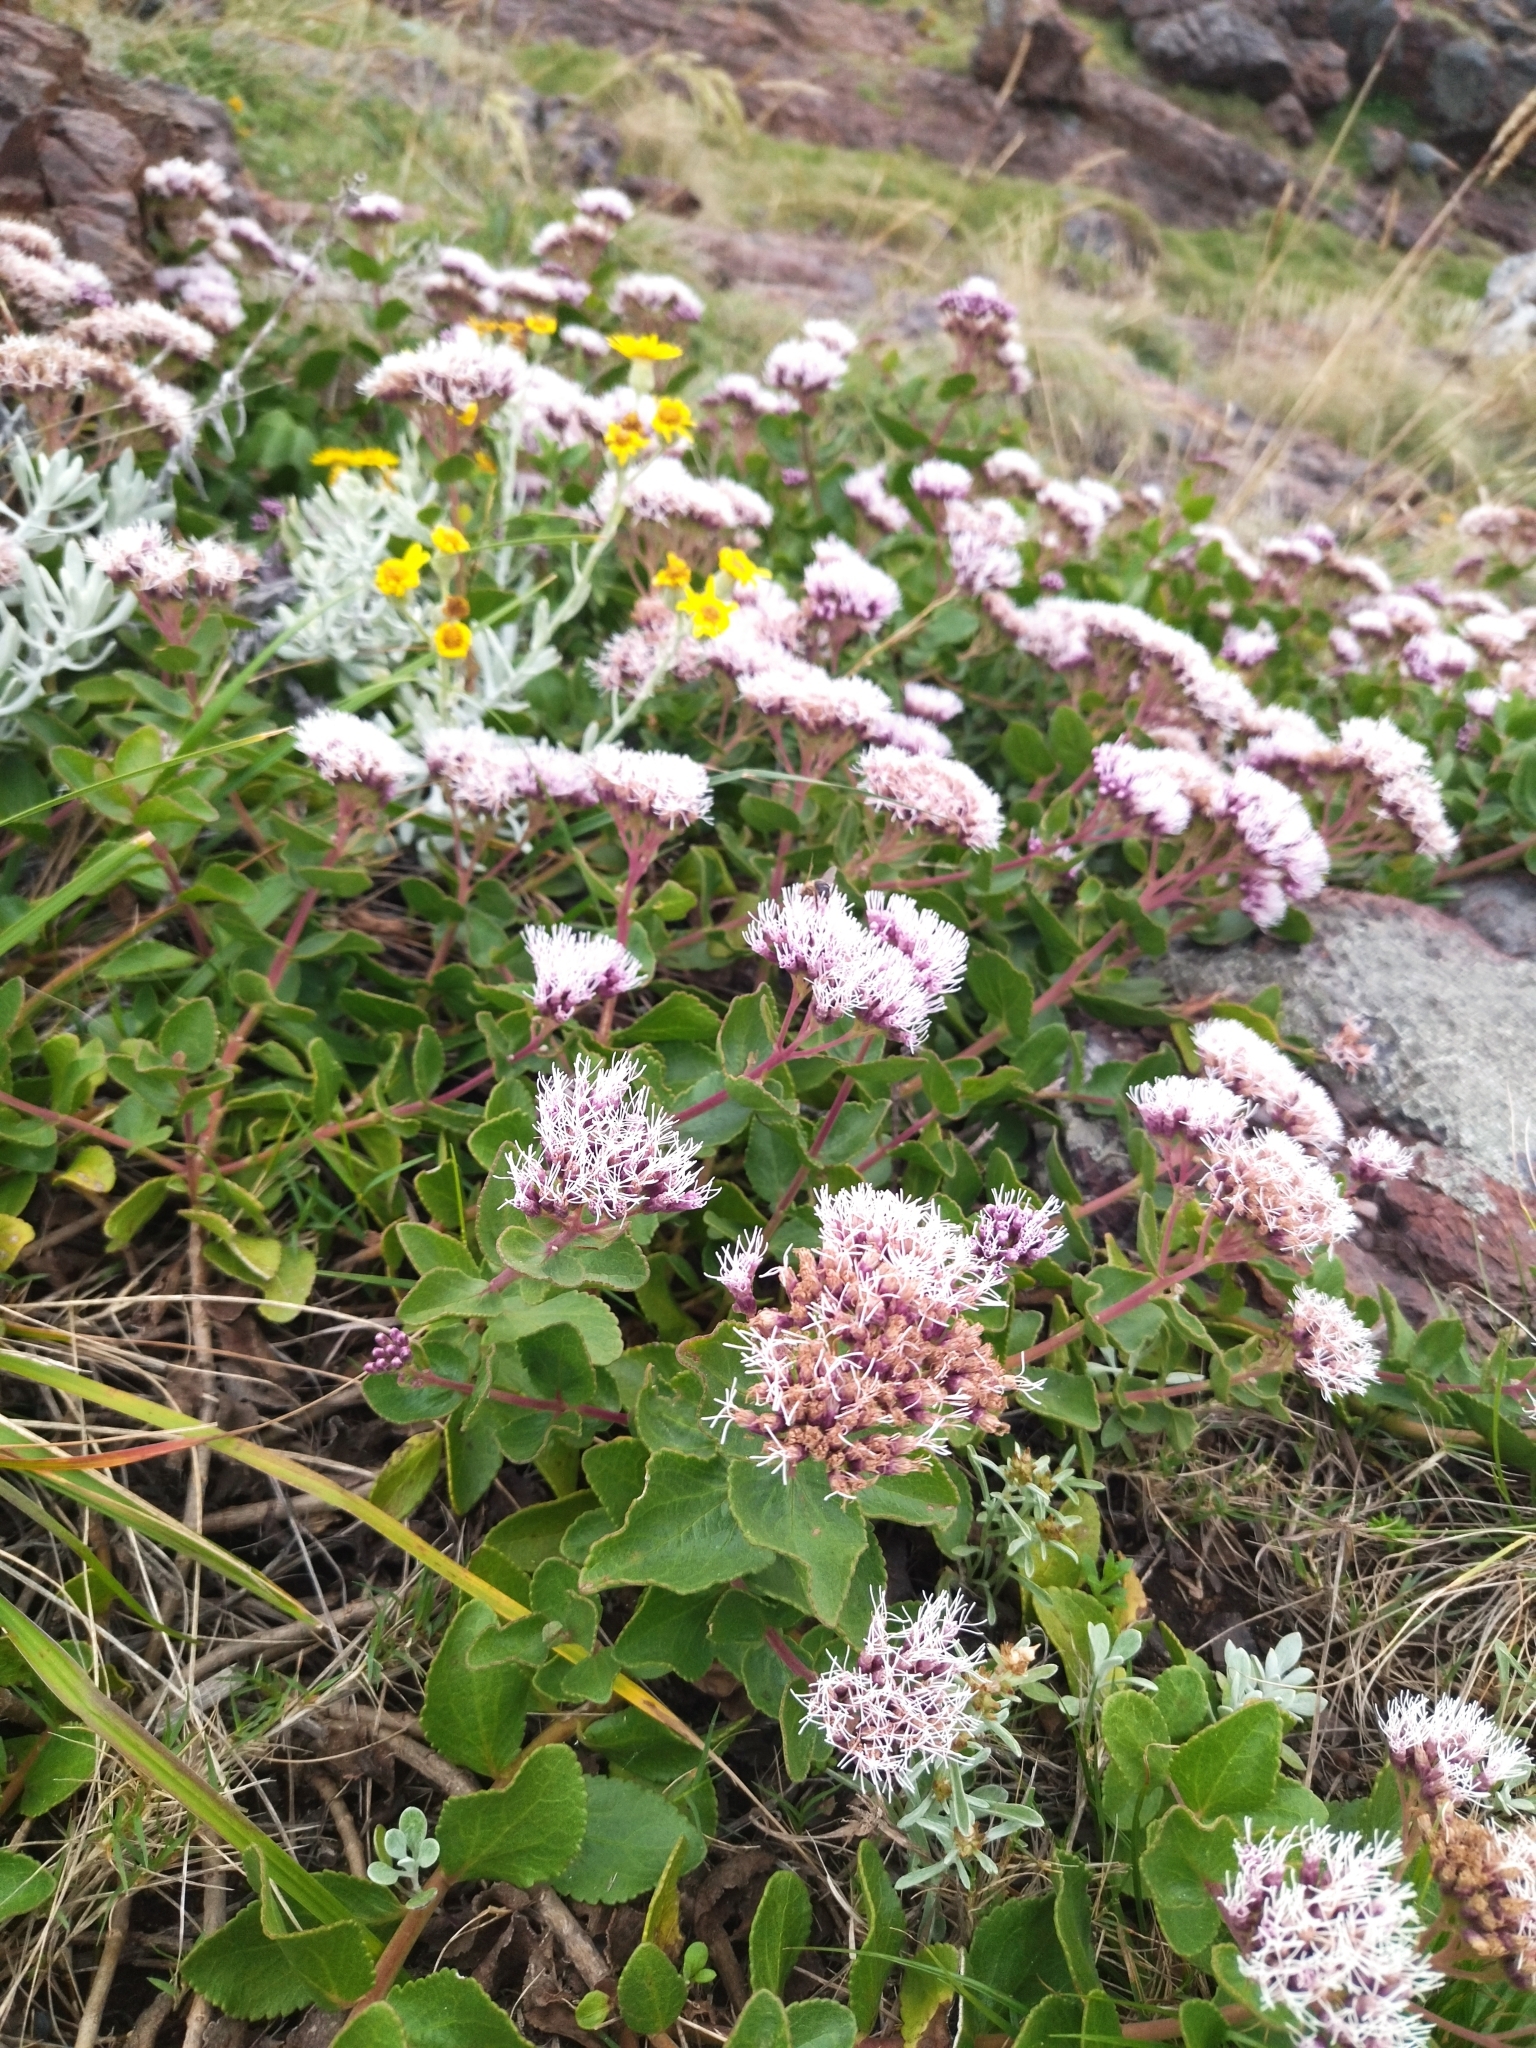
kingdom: Plantae
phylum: Tracheophyta
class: Magnoliopsida
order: Asterales
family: Asteraceae
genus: Grazielia
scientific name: Grazielia brevipetiolata
